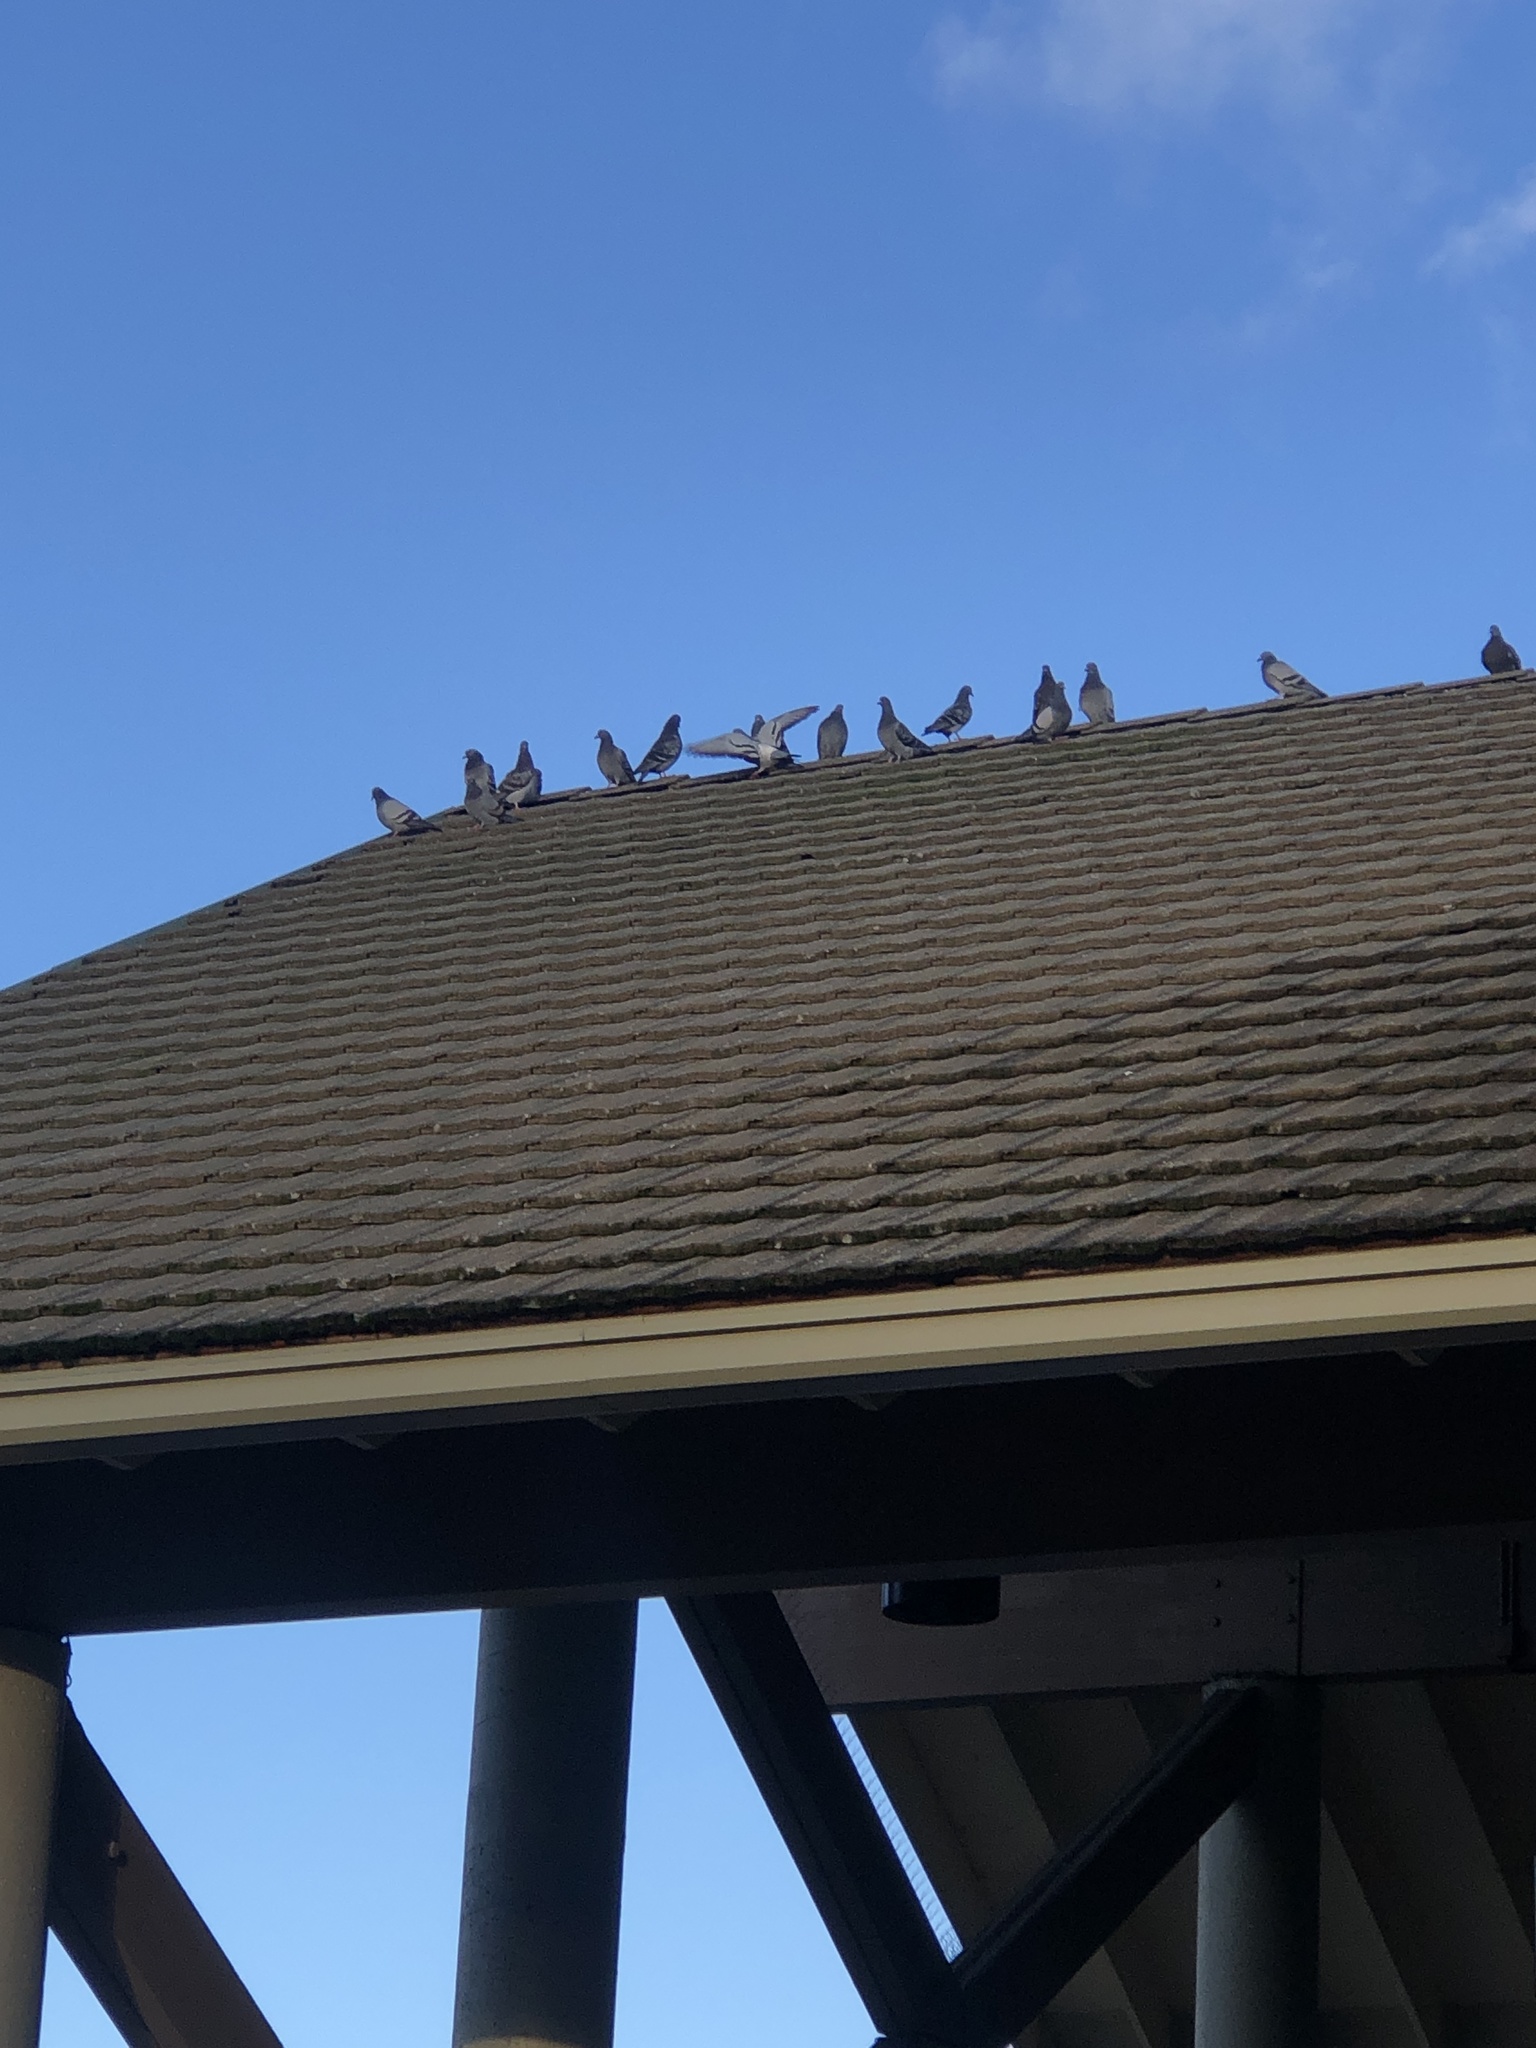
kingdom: Animalia
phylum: Chordata
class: Aves
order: Columbiformes
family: Columbidae
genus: Columba
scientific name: Columba livia
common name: Rock pigeon
